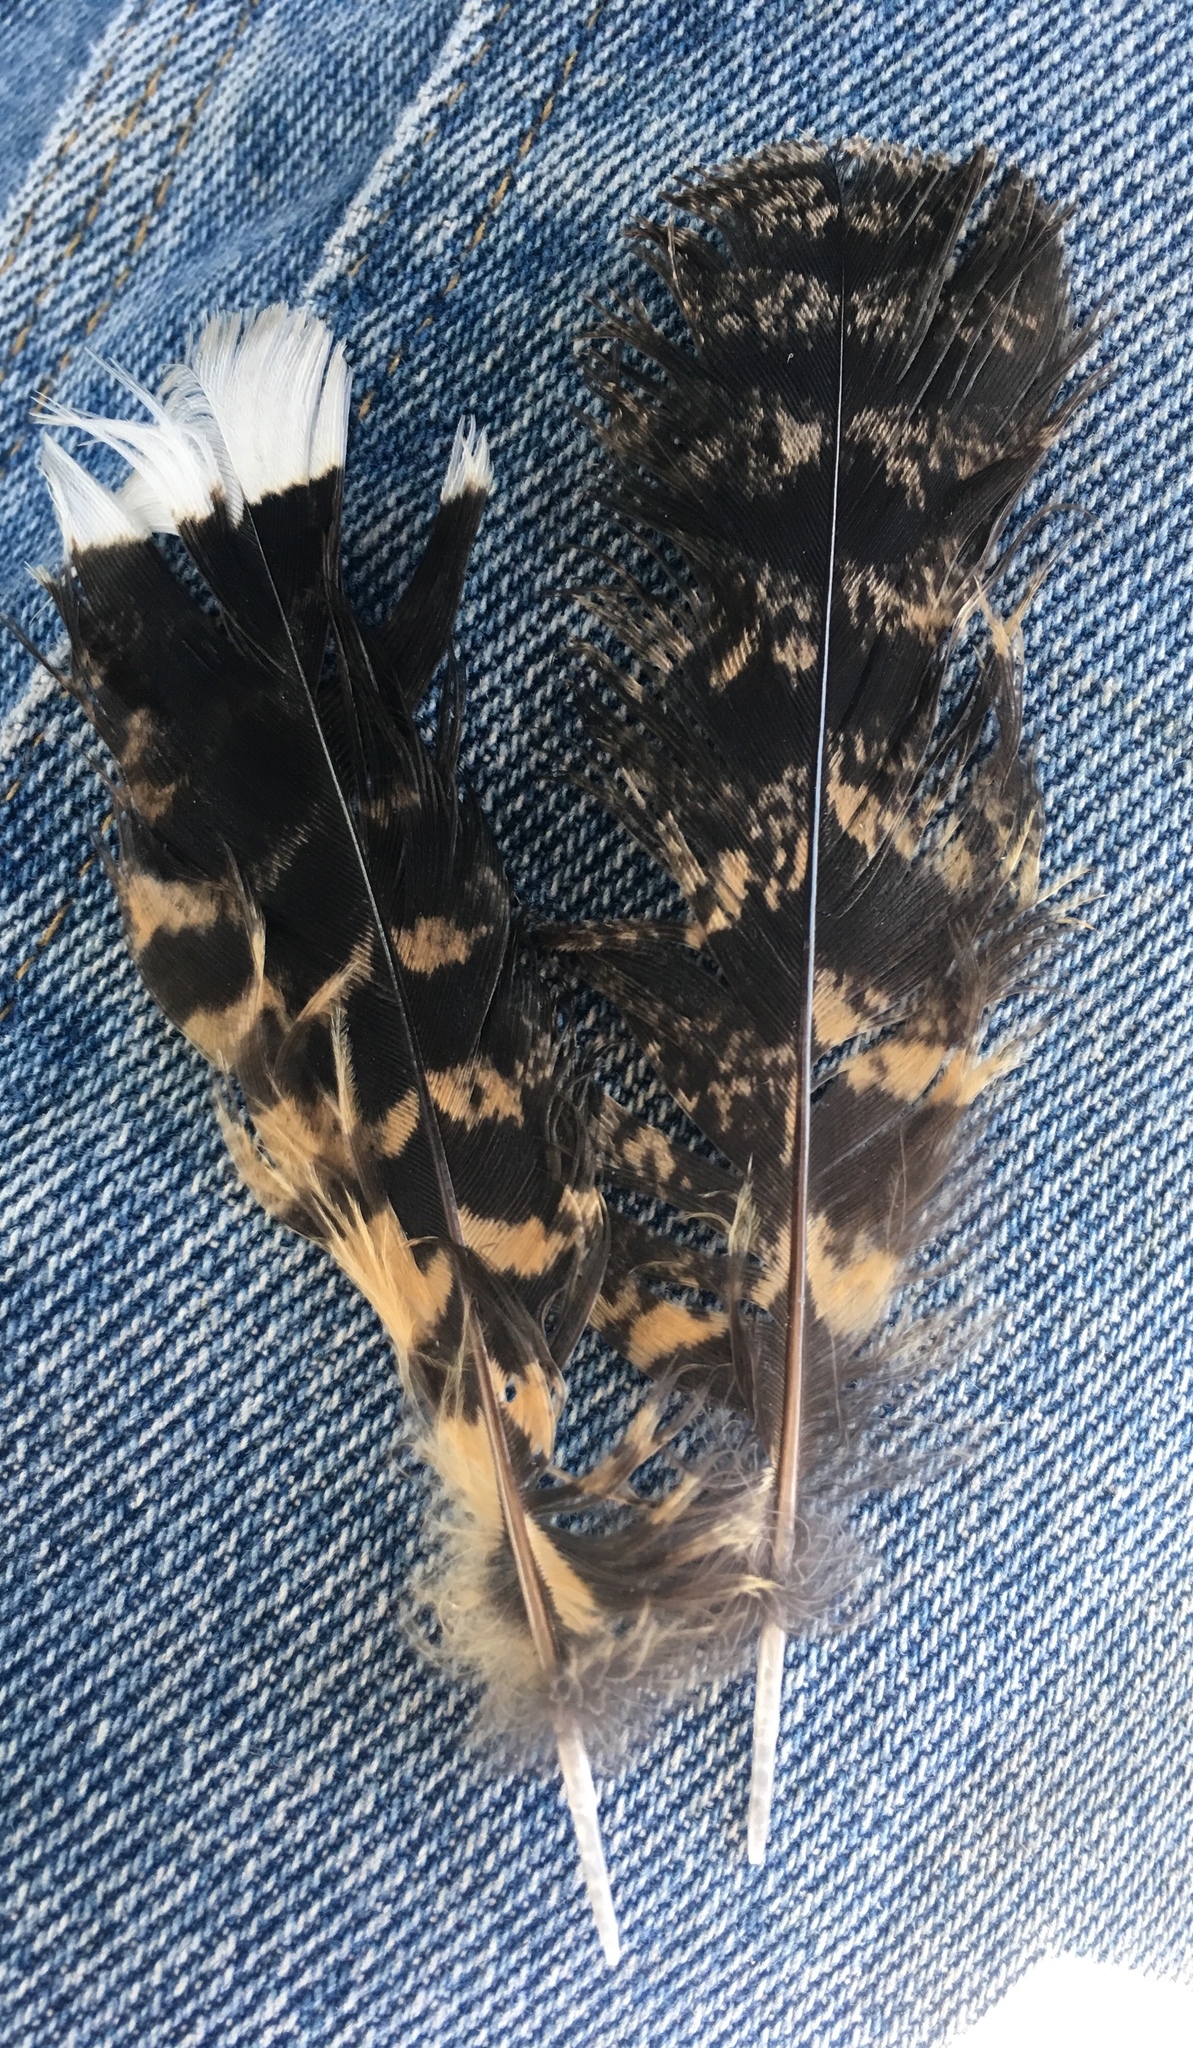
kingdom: Animalia
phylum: Chordata
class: Aves
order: Caprimulgiformes
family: Caprimulgidae
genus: Phalaenoptilus
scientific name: Phalaenoptilus nuttallii
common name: Common poorwill
